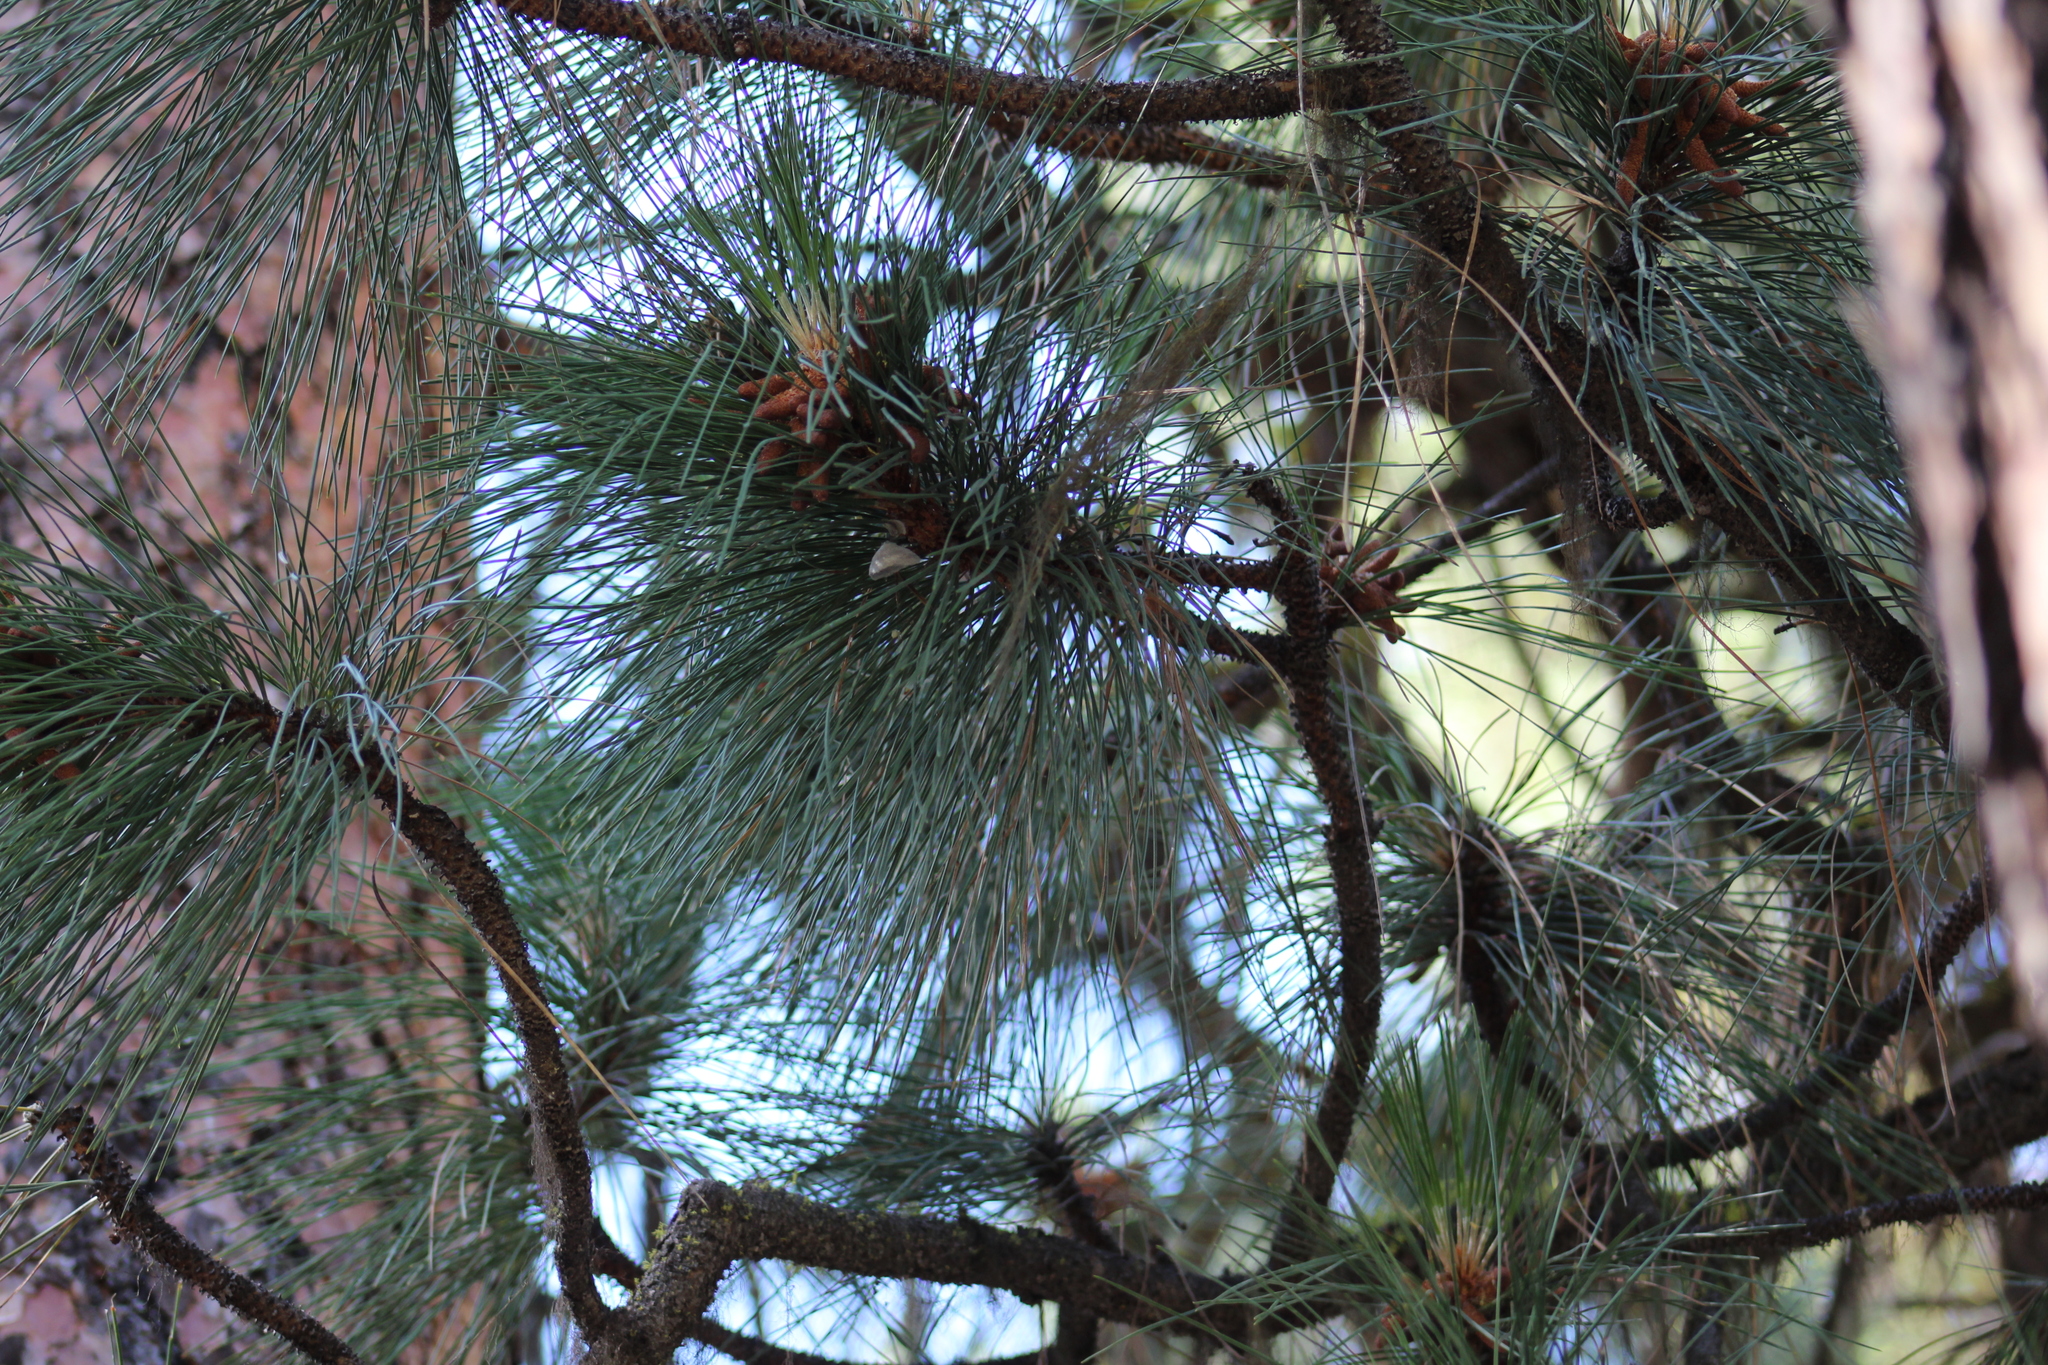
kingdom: Plantae
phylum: Tracheophyta
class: Pinopsida
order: Pinales
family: Pinaceae
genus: Pinus
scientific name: Pinus ponderosa
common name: Western yellow-pine
